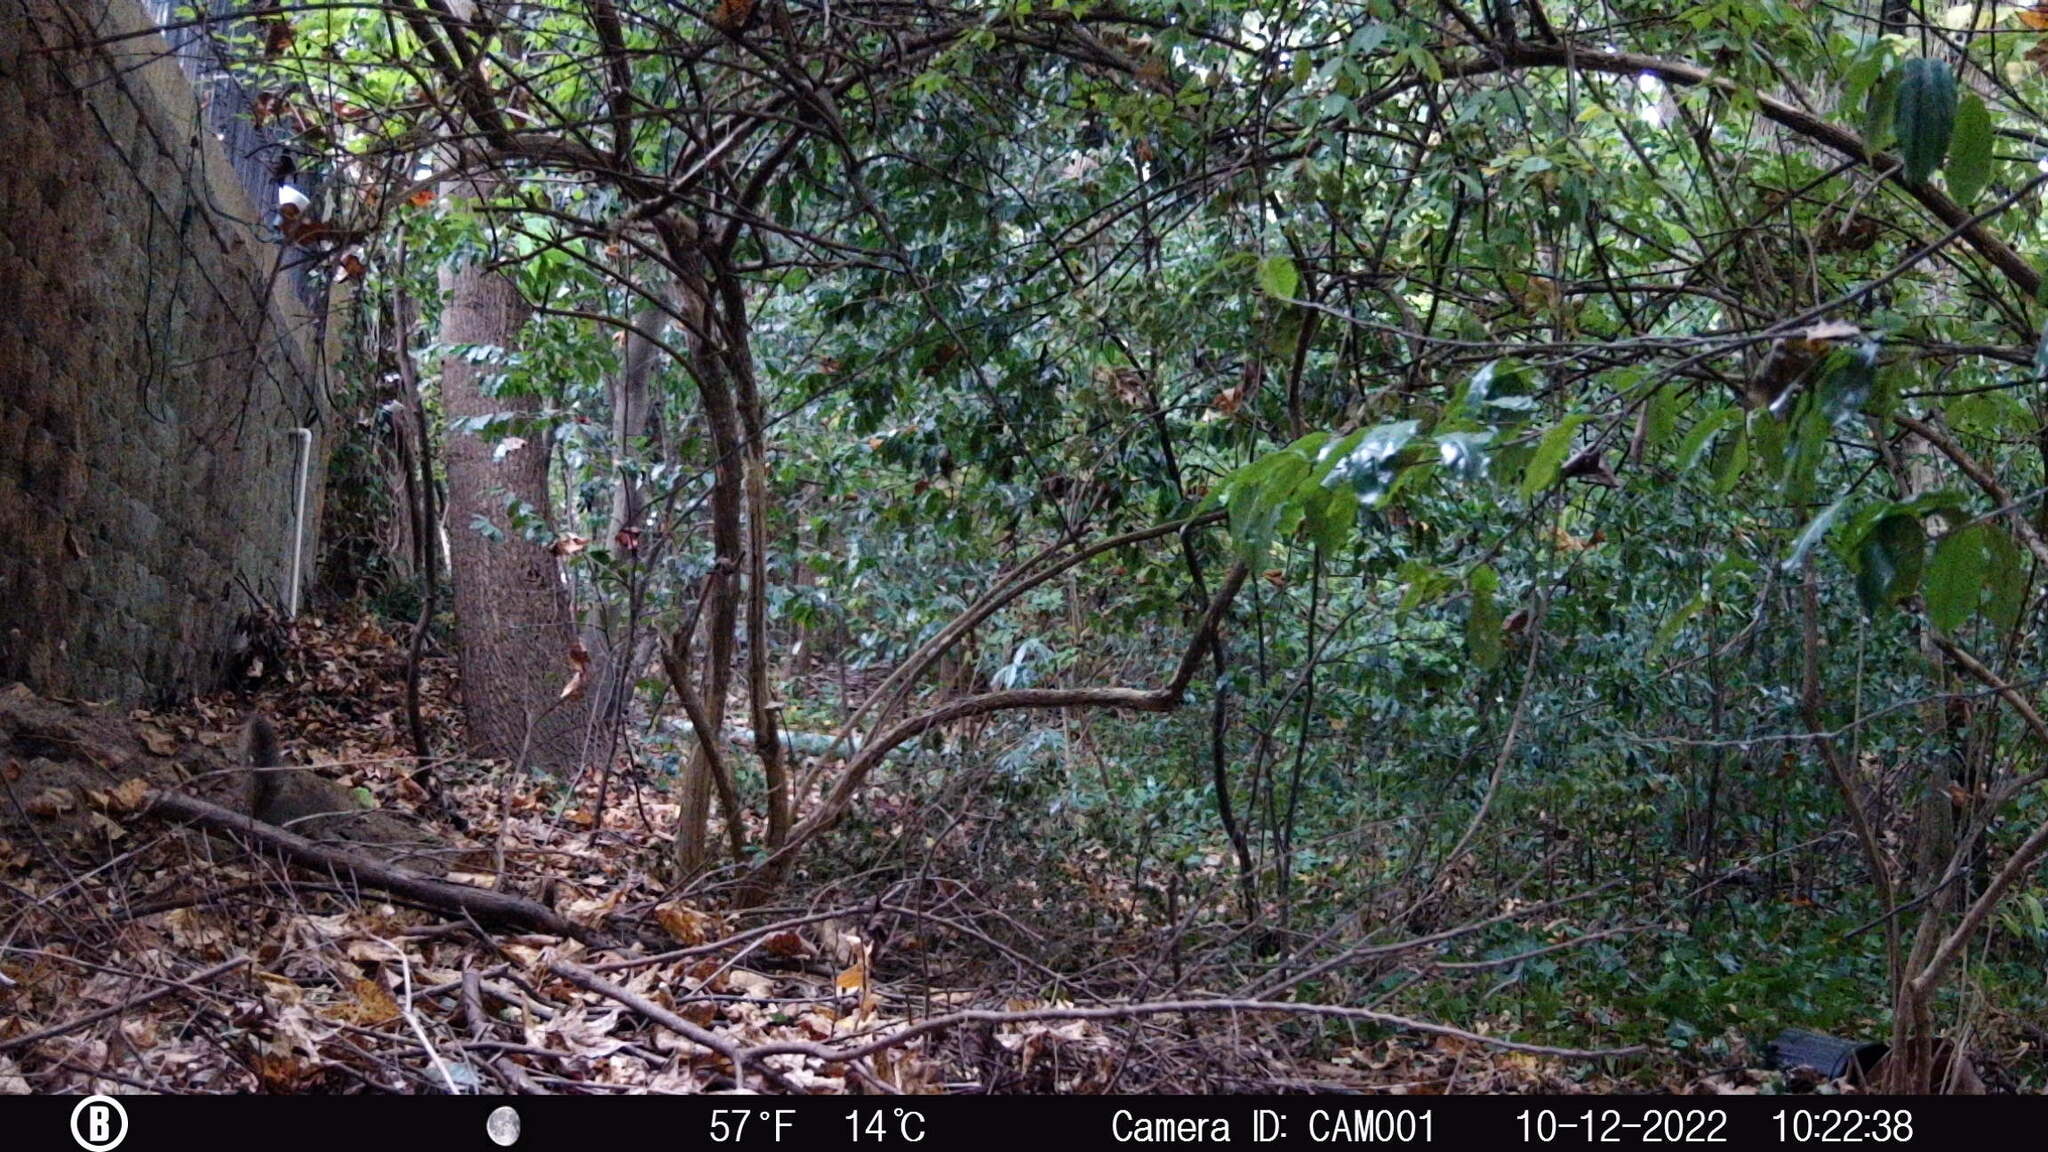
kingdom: Animalia
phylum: Chordata
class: Mammalia
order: Rodentia
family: Sciuridae
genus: Sciurus
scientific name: Sciurus carolinensis
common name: Eastern gray squirrel
